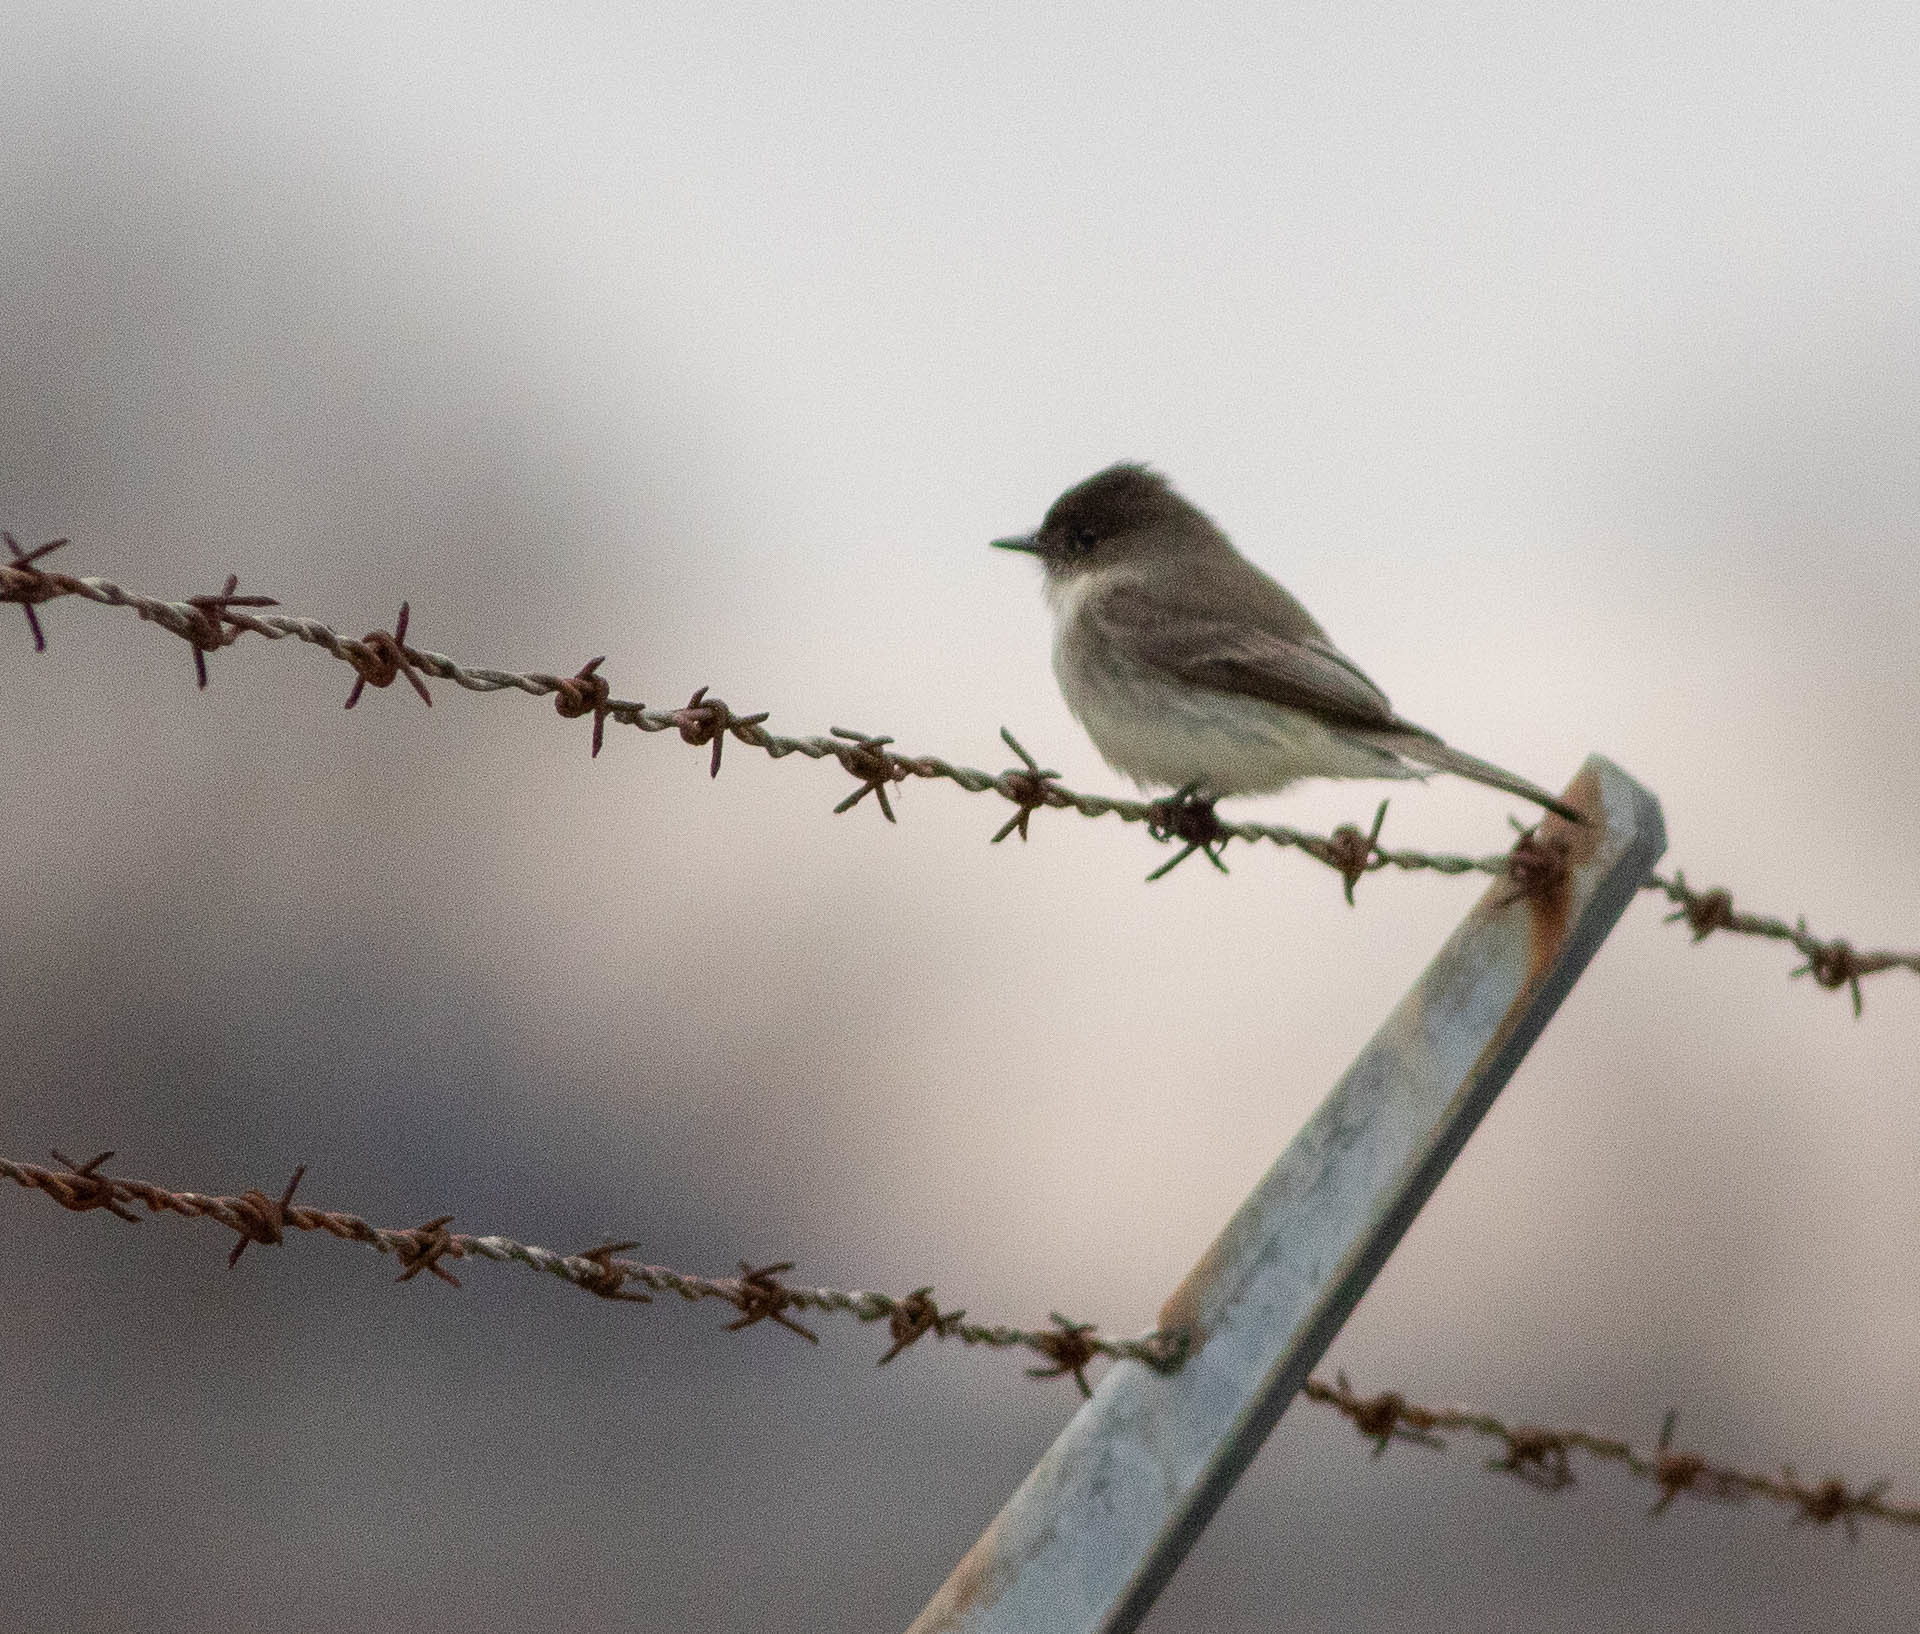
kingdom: Animalia
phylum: Chordata
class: Aves
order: Passeriformes
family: Tyrannidae
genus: Sayornis
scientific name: Sayornis phoebe
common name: Eastern phoebe
